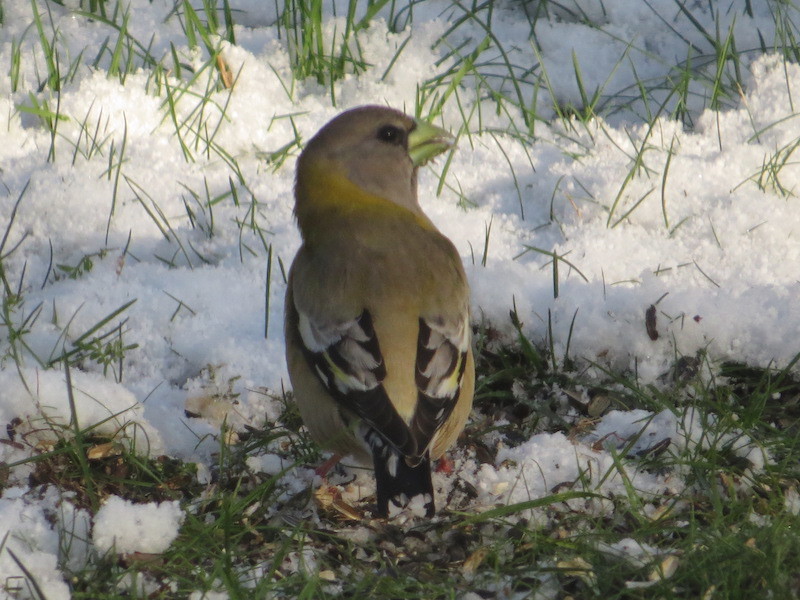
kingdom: Animalia
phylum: Chordata
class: Aves
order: Passeriformes
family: Fringillidae
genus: Hesperiphona
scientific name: Hesperiphona vespertina
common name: Evening grosbeak
